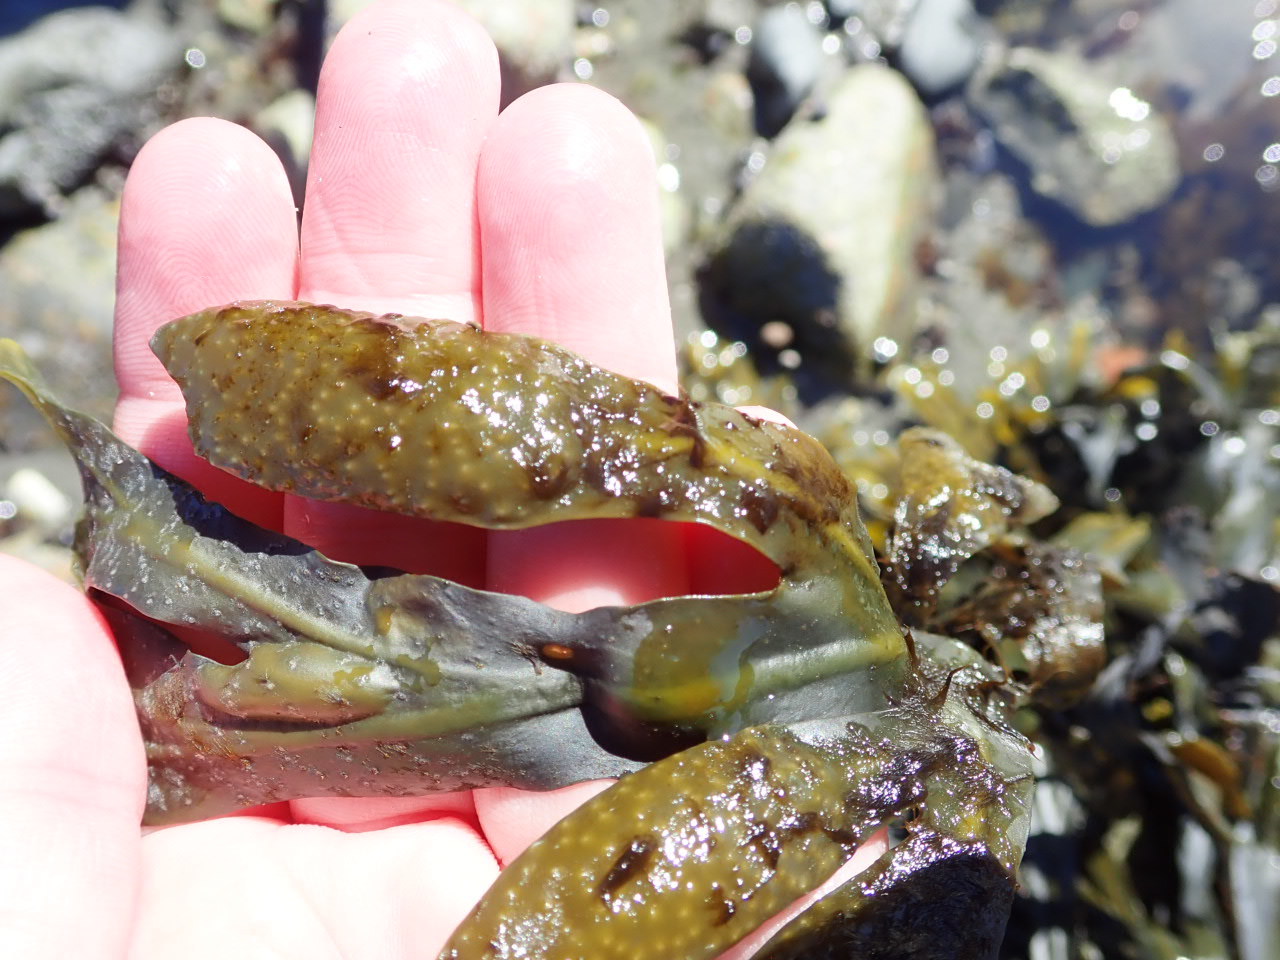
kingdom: Chromista
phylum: Ochrophyta
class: Phaeophyceae
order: Fucales
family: Fucaceae
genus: Fucus
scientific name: Fucus vesiculosus
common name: Bladder wrack
